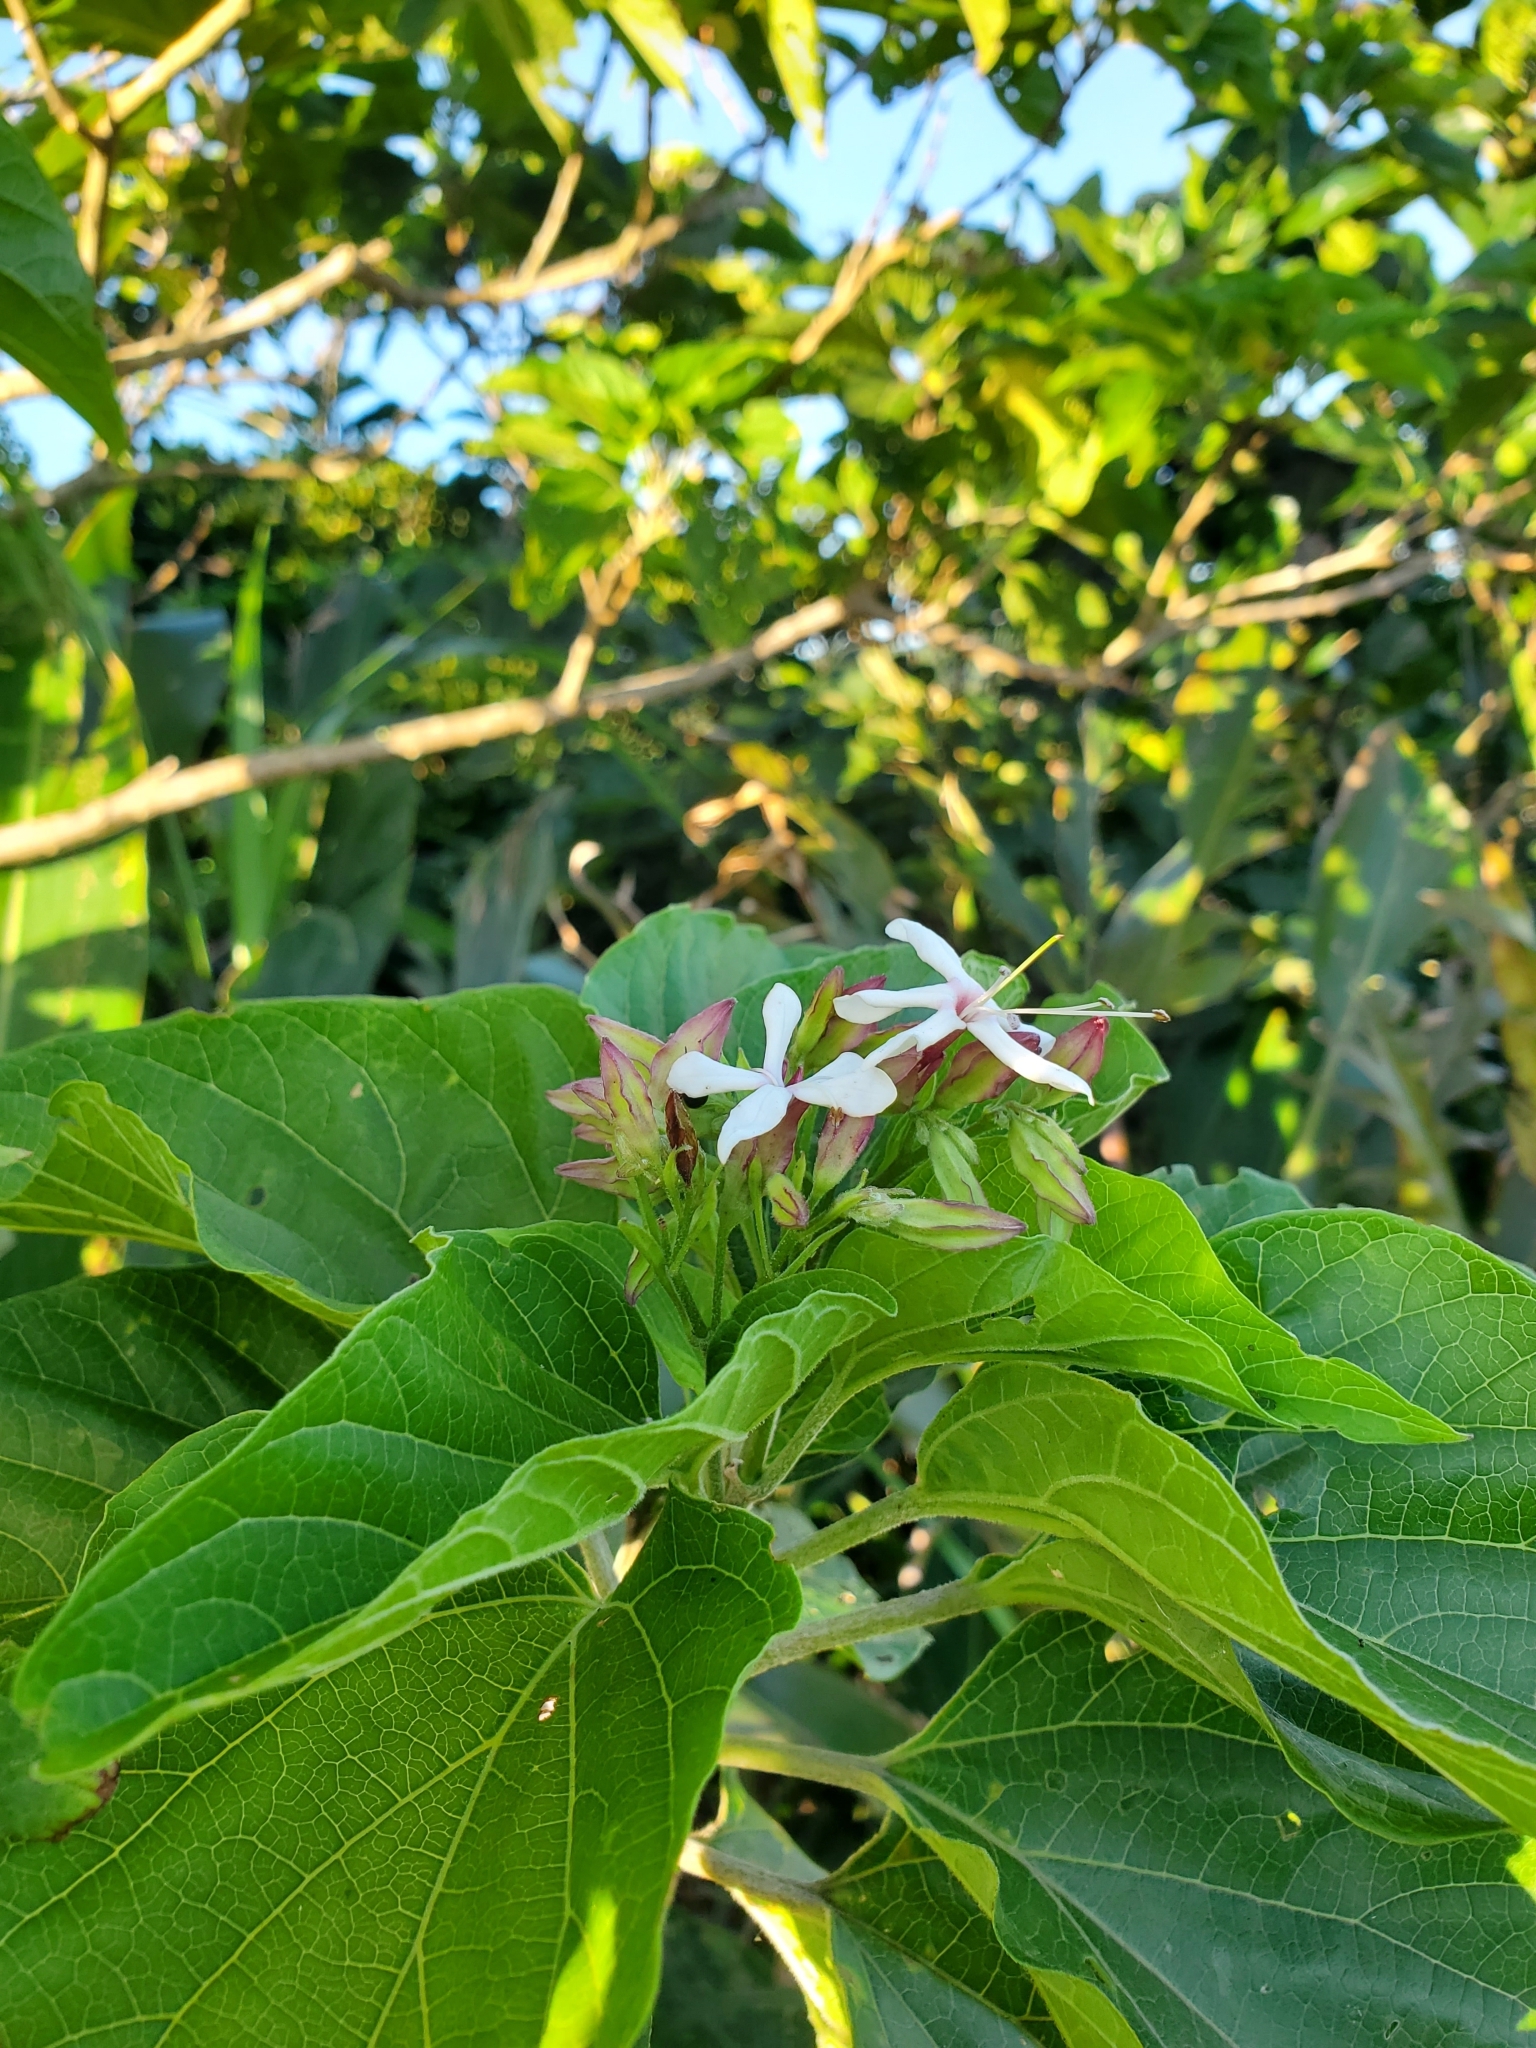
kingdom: Plantae
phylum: Tracheophyta
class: Magnoliopsida
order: Lamiales
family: Lamiaceae
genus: Clerodendrum
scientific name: Clerodendrum trichotomum
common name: Harlequin glorybower
